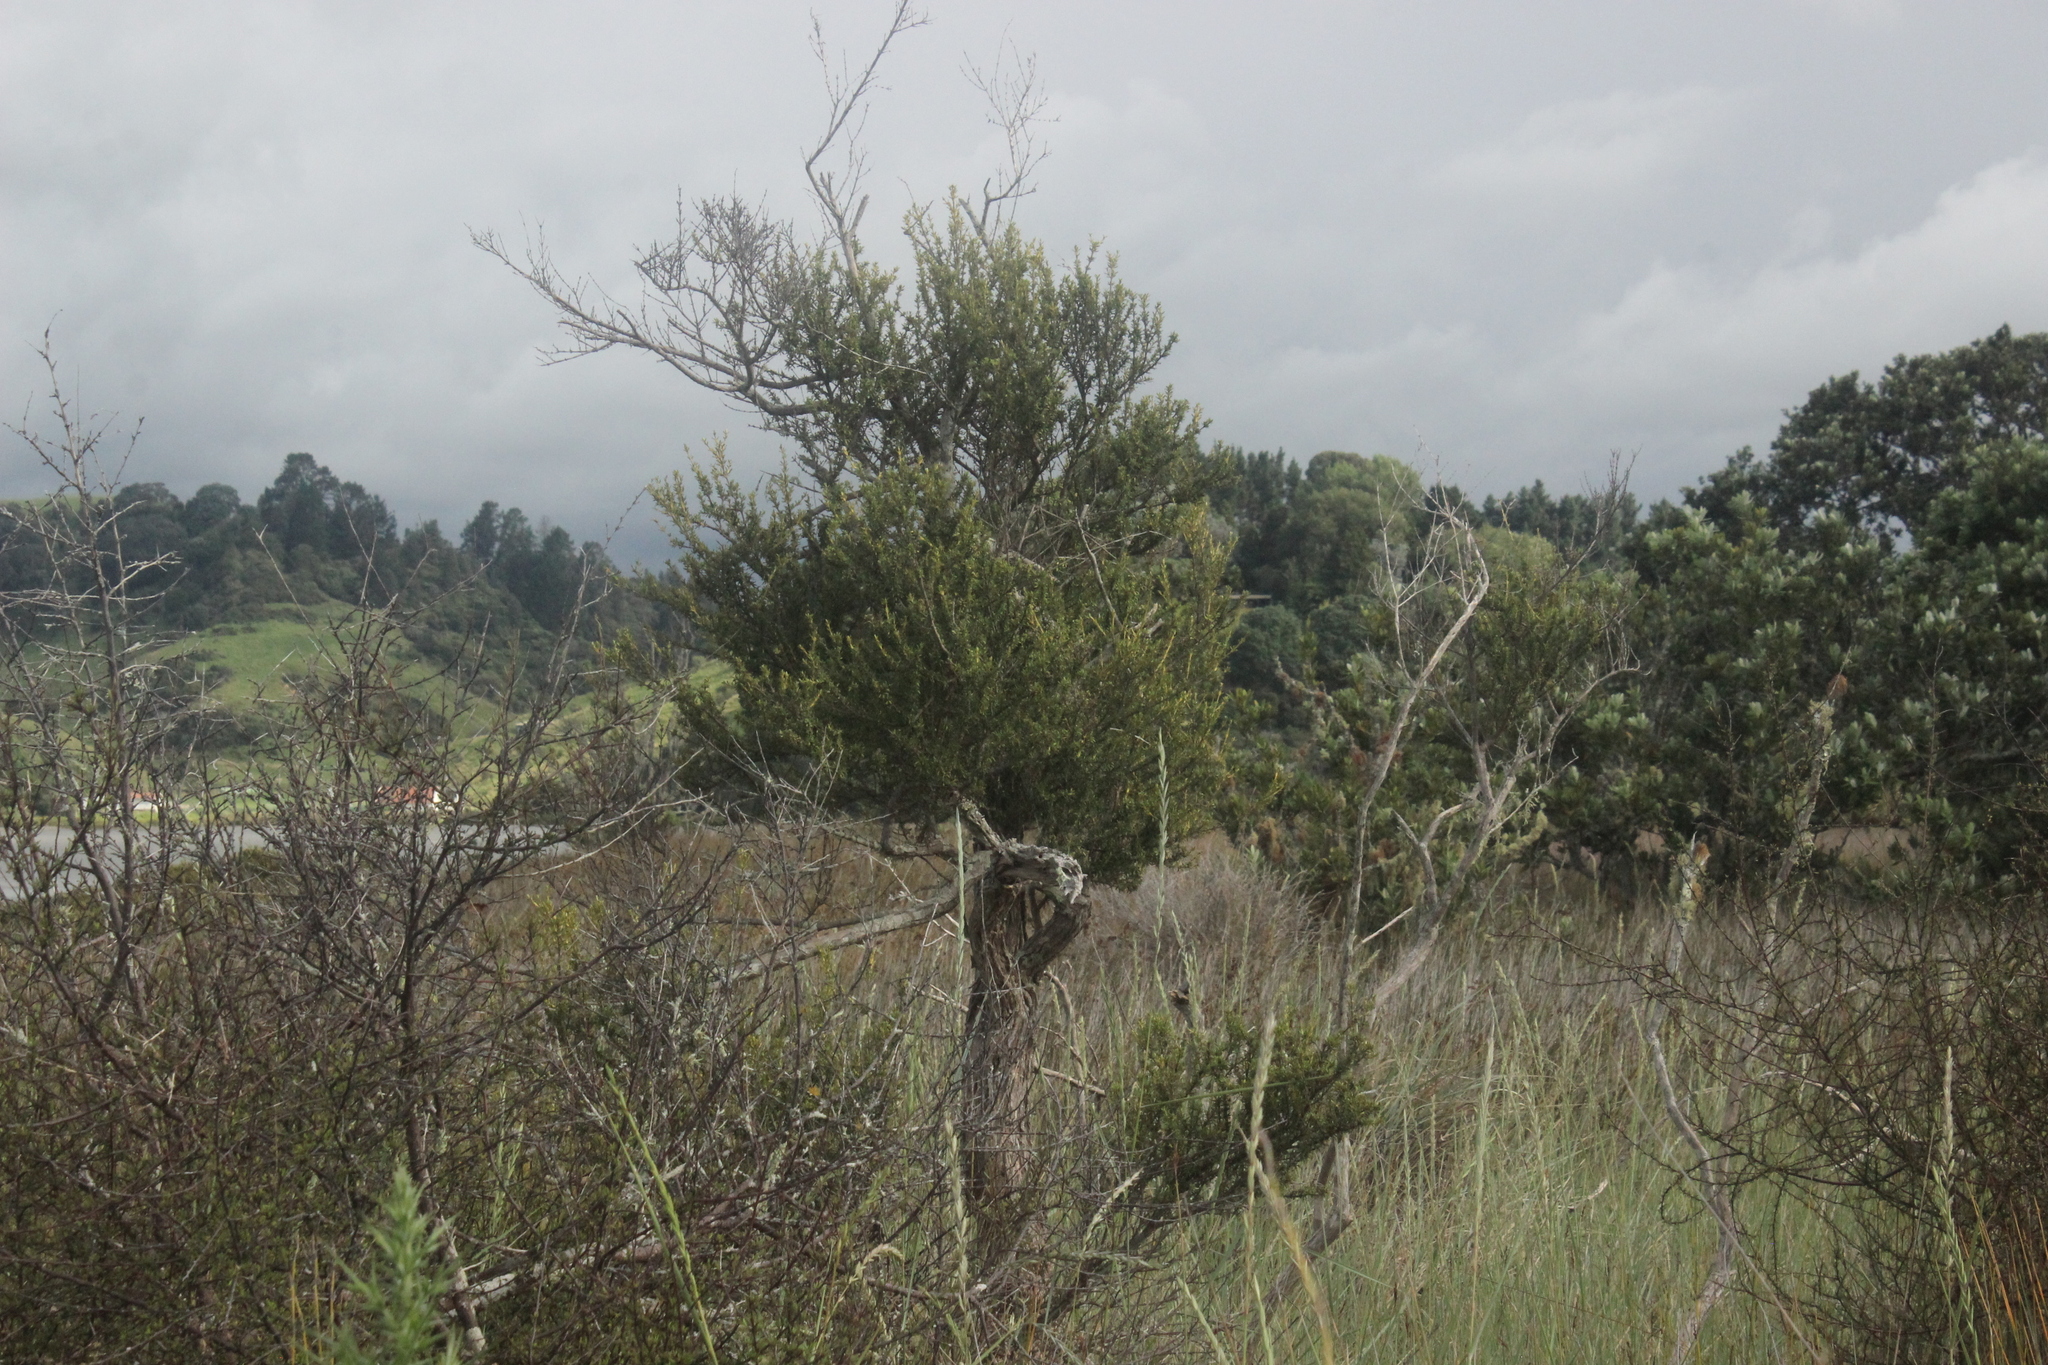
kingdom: Plantae
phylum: Tracheophyta
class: Magnoliopsida
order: Asterales
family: Asteraceae
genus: Olearia
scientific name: Olearia solandri
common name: Coastal daisybush
